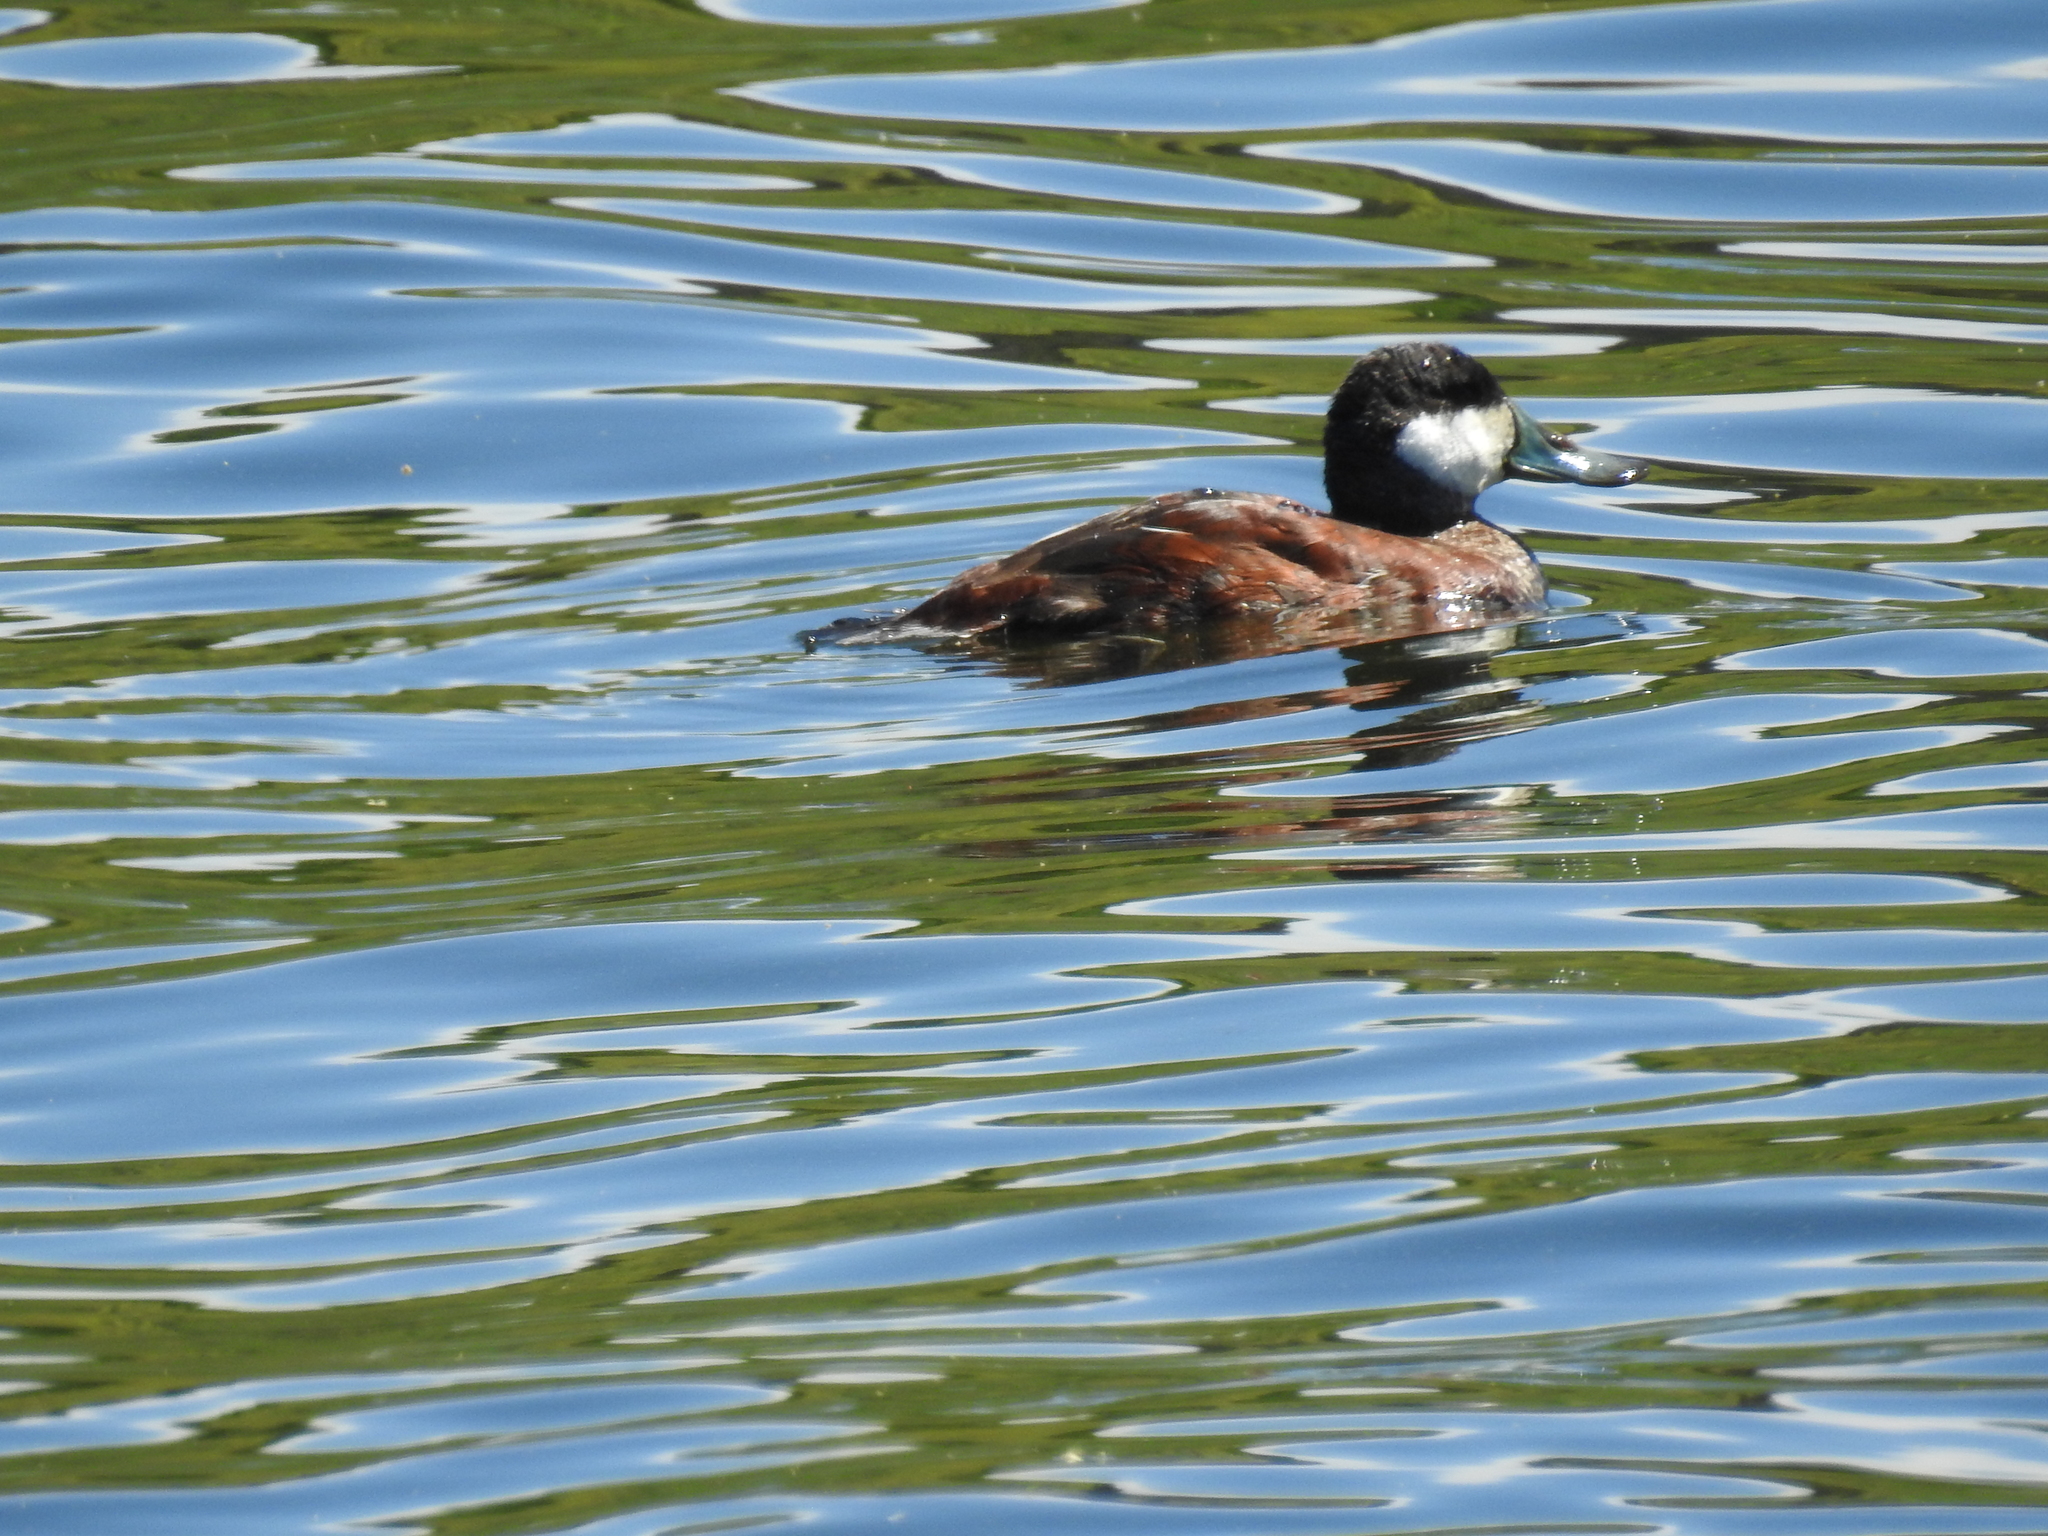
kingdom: Animalia
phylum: Chordata
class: Aves
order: Anseriformes
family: Anatidae
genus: Oxyura
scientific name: Oxyura jamaicensis
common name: Ruddy duck
